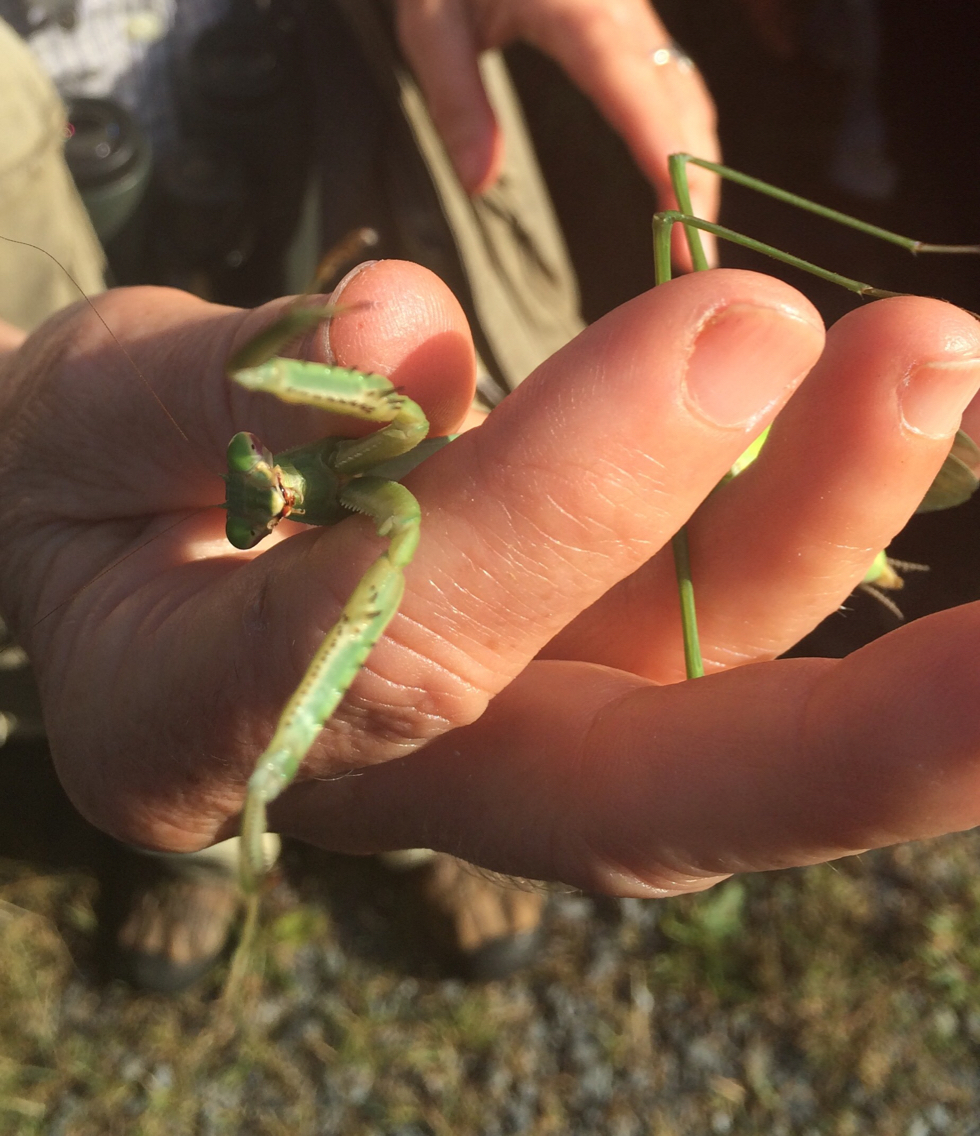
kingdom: Animalia
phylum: Arthropoda
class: Insecta
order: Mantodea
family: Mantidae
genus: Tenodera
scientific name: Tenodera sinensis
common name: Chinese mantis
